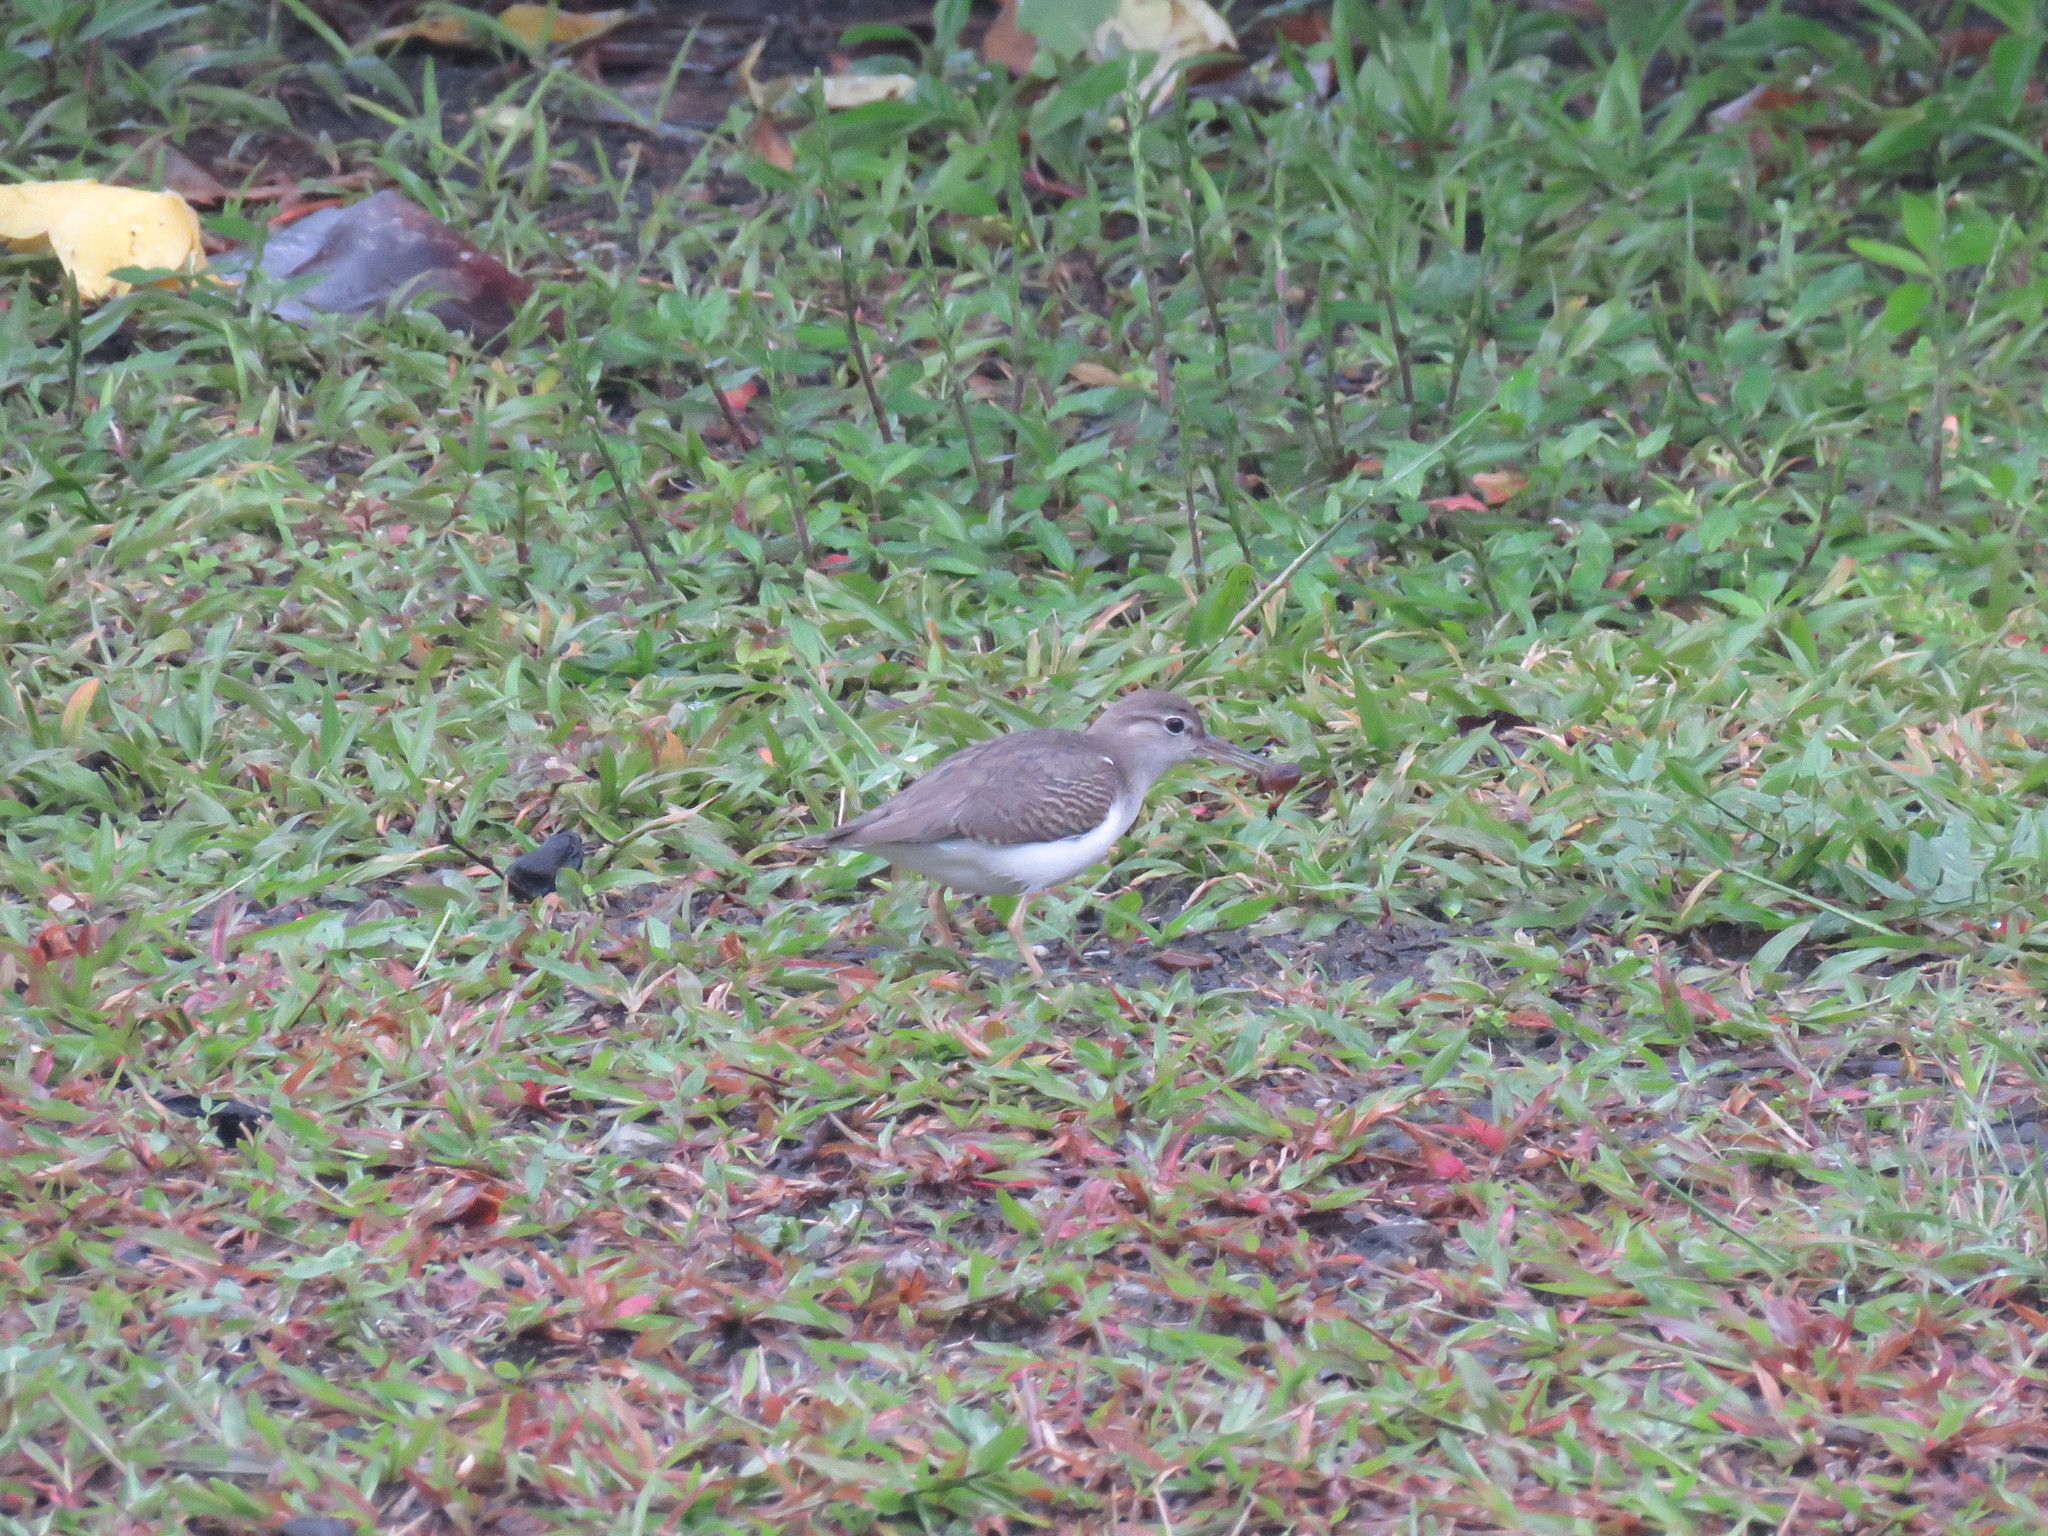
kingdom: Animalia
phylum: Chordata
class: Aves
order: Charadriiformes
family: Scolopacidae
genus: Actitis
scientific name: Actitis macularius
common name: Spotted sandpiper
